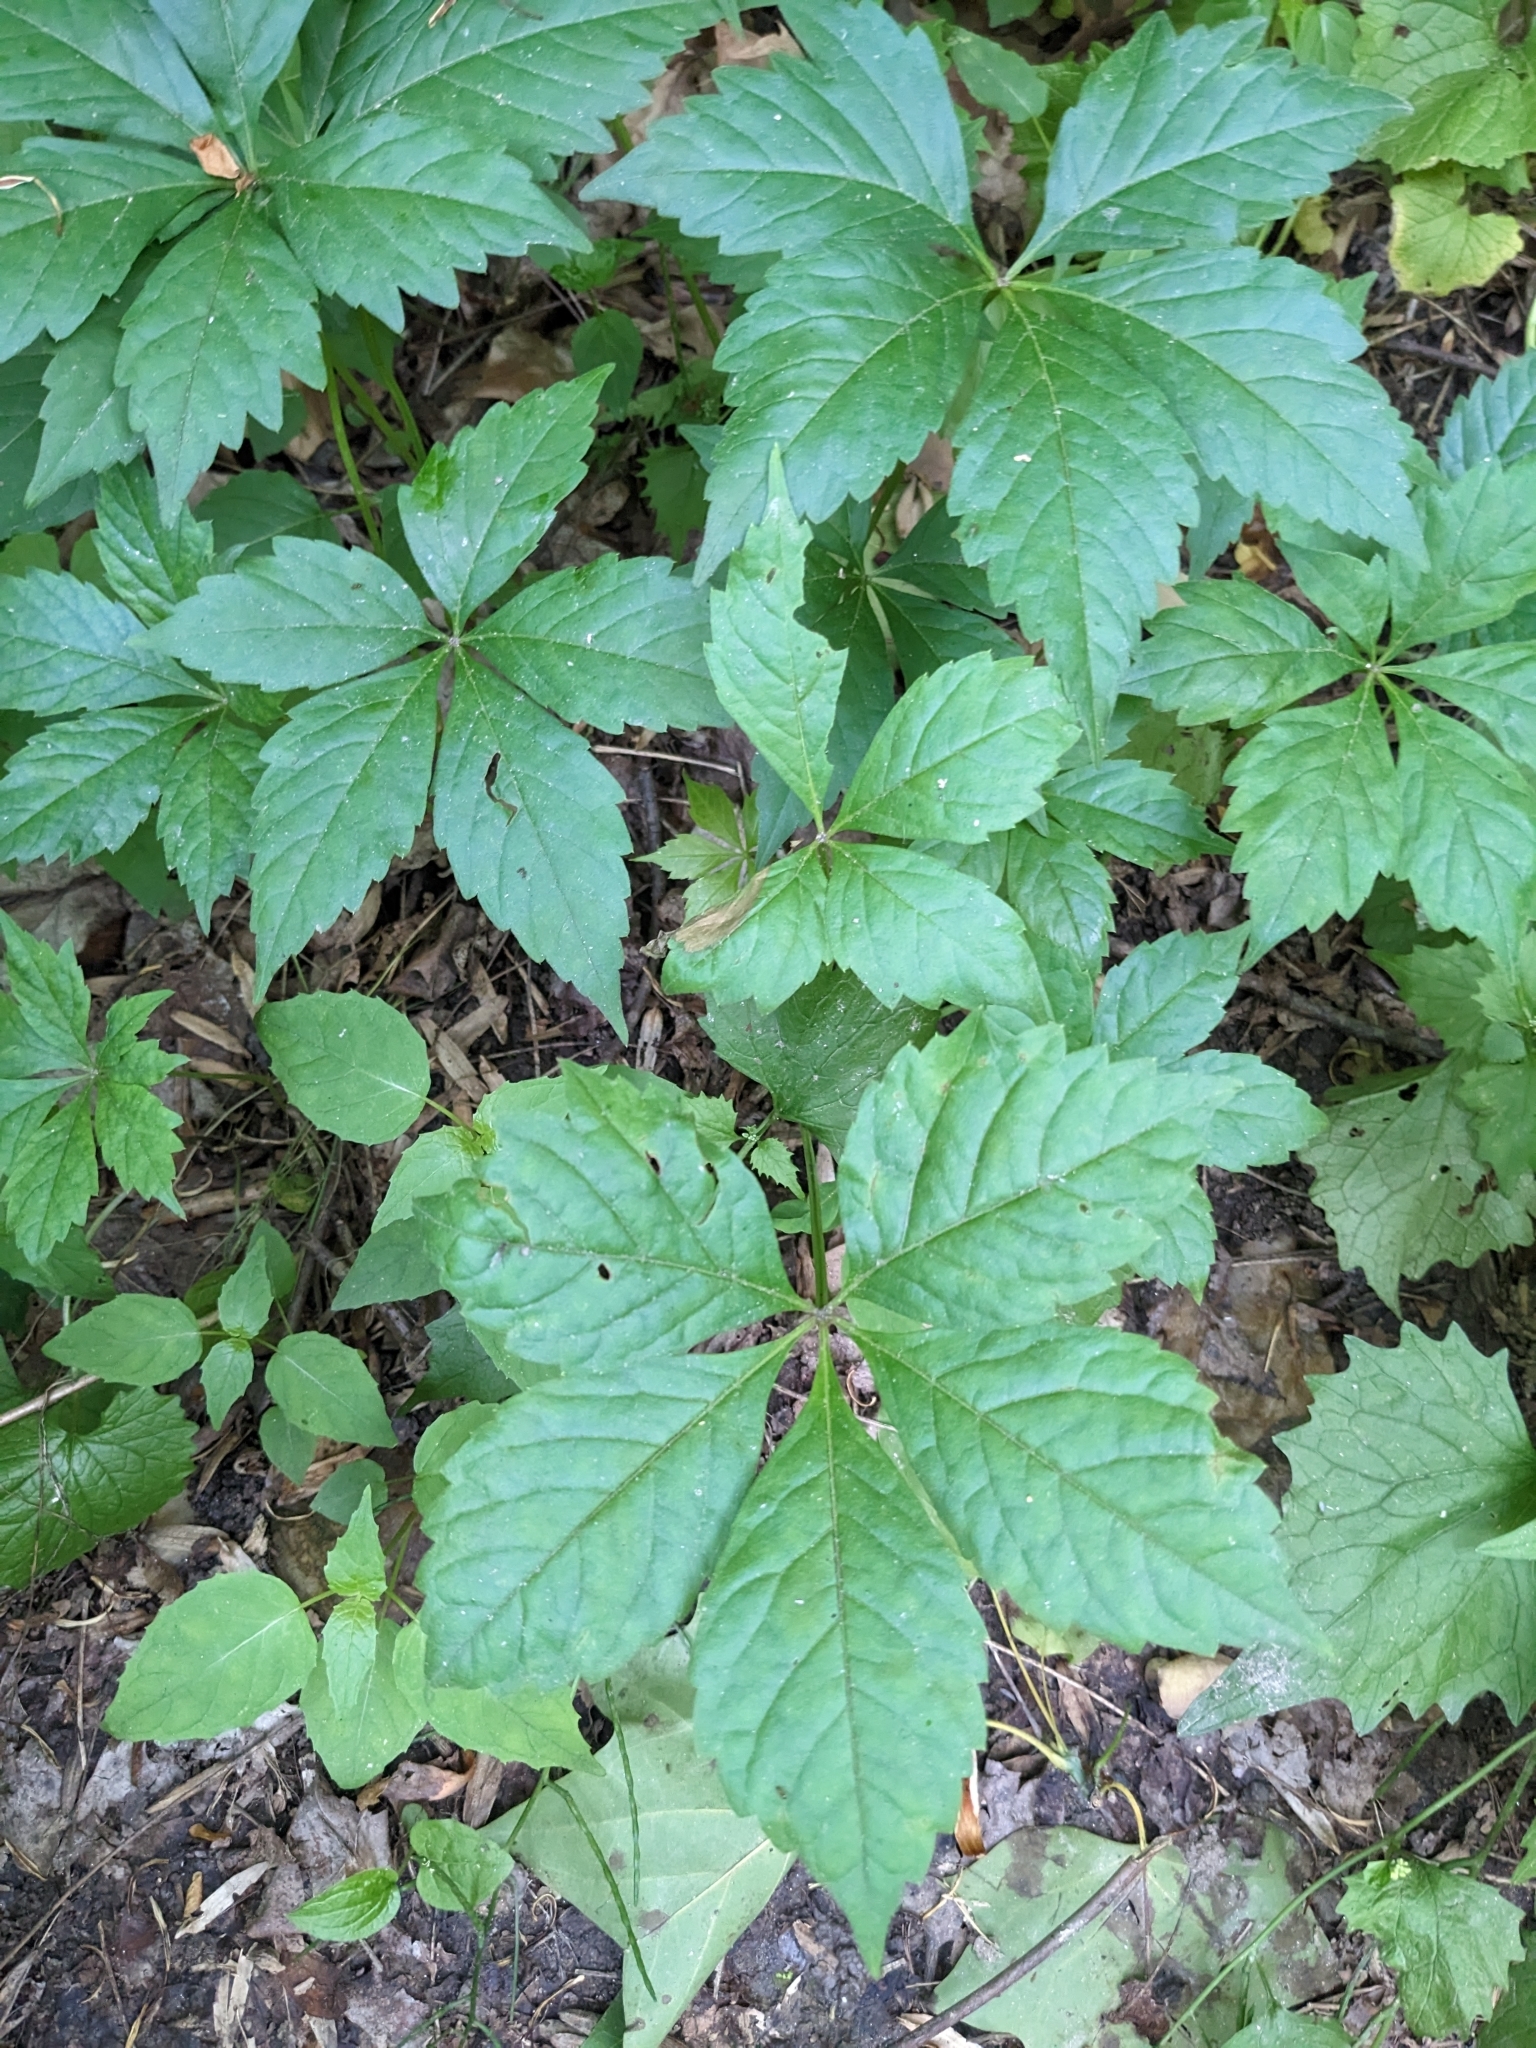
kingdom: Plantae
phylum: Tracheophyta
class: Magnoliopsida
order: Vitales
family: Vitaceae
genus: Parthenocissus
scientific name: Parthenocissus quinquefolia
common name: Virginia-creeper
